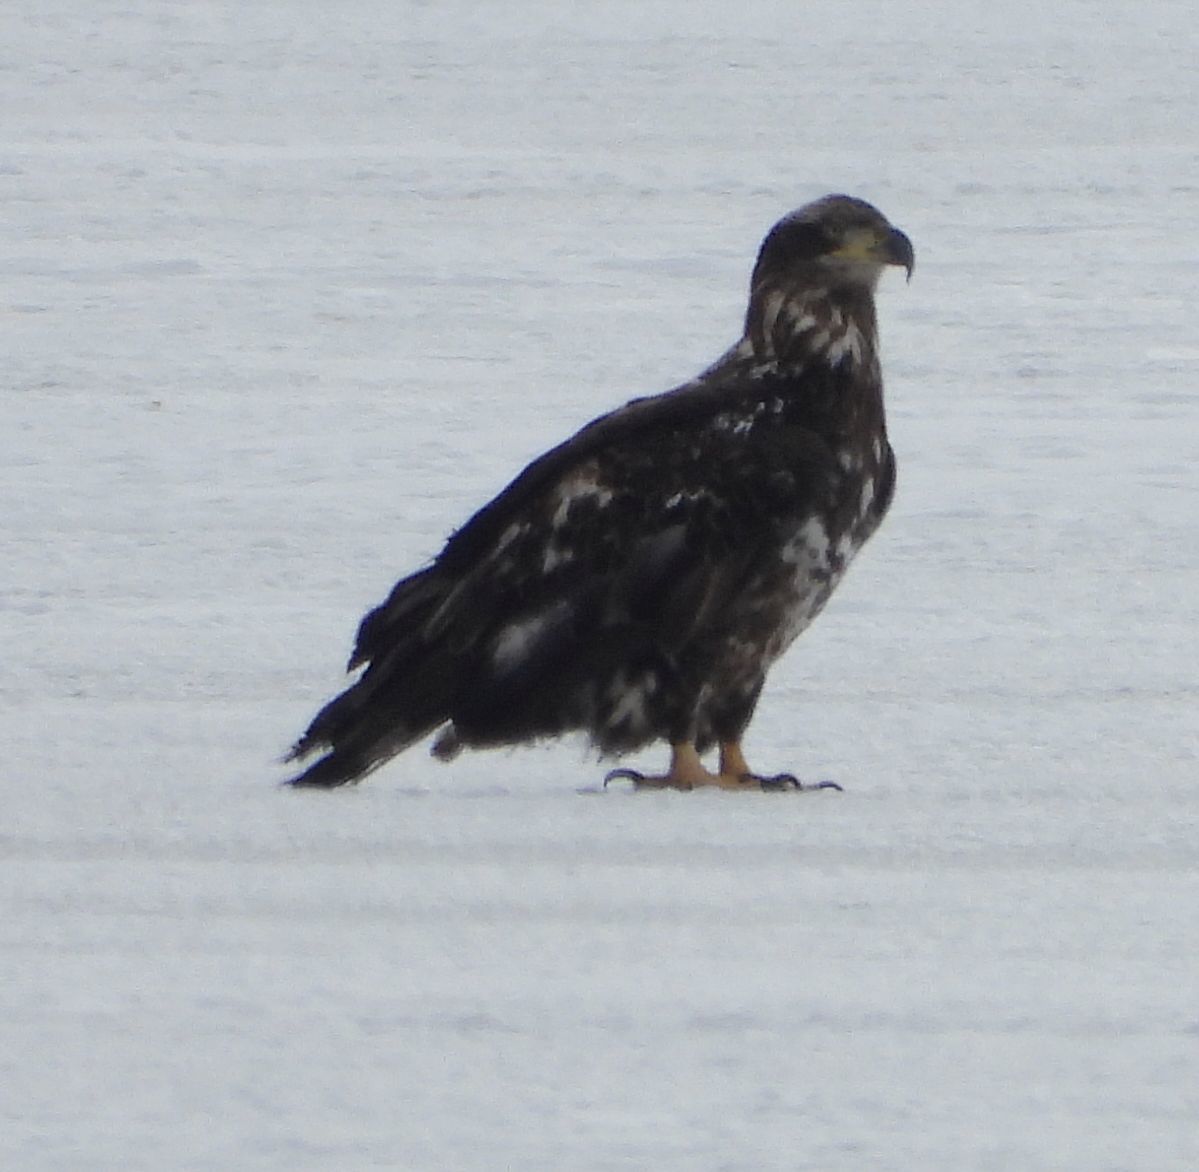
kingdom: Animalia
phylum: Chordata
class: Aves
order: Accipitriformes
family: Accipitridae
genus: Haliaeetus
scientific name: Haliaeetus leucocephalus
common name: Bald eagle
